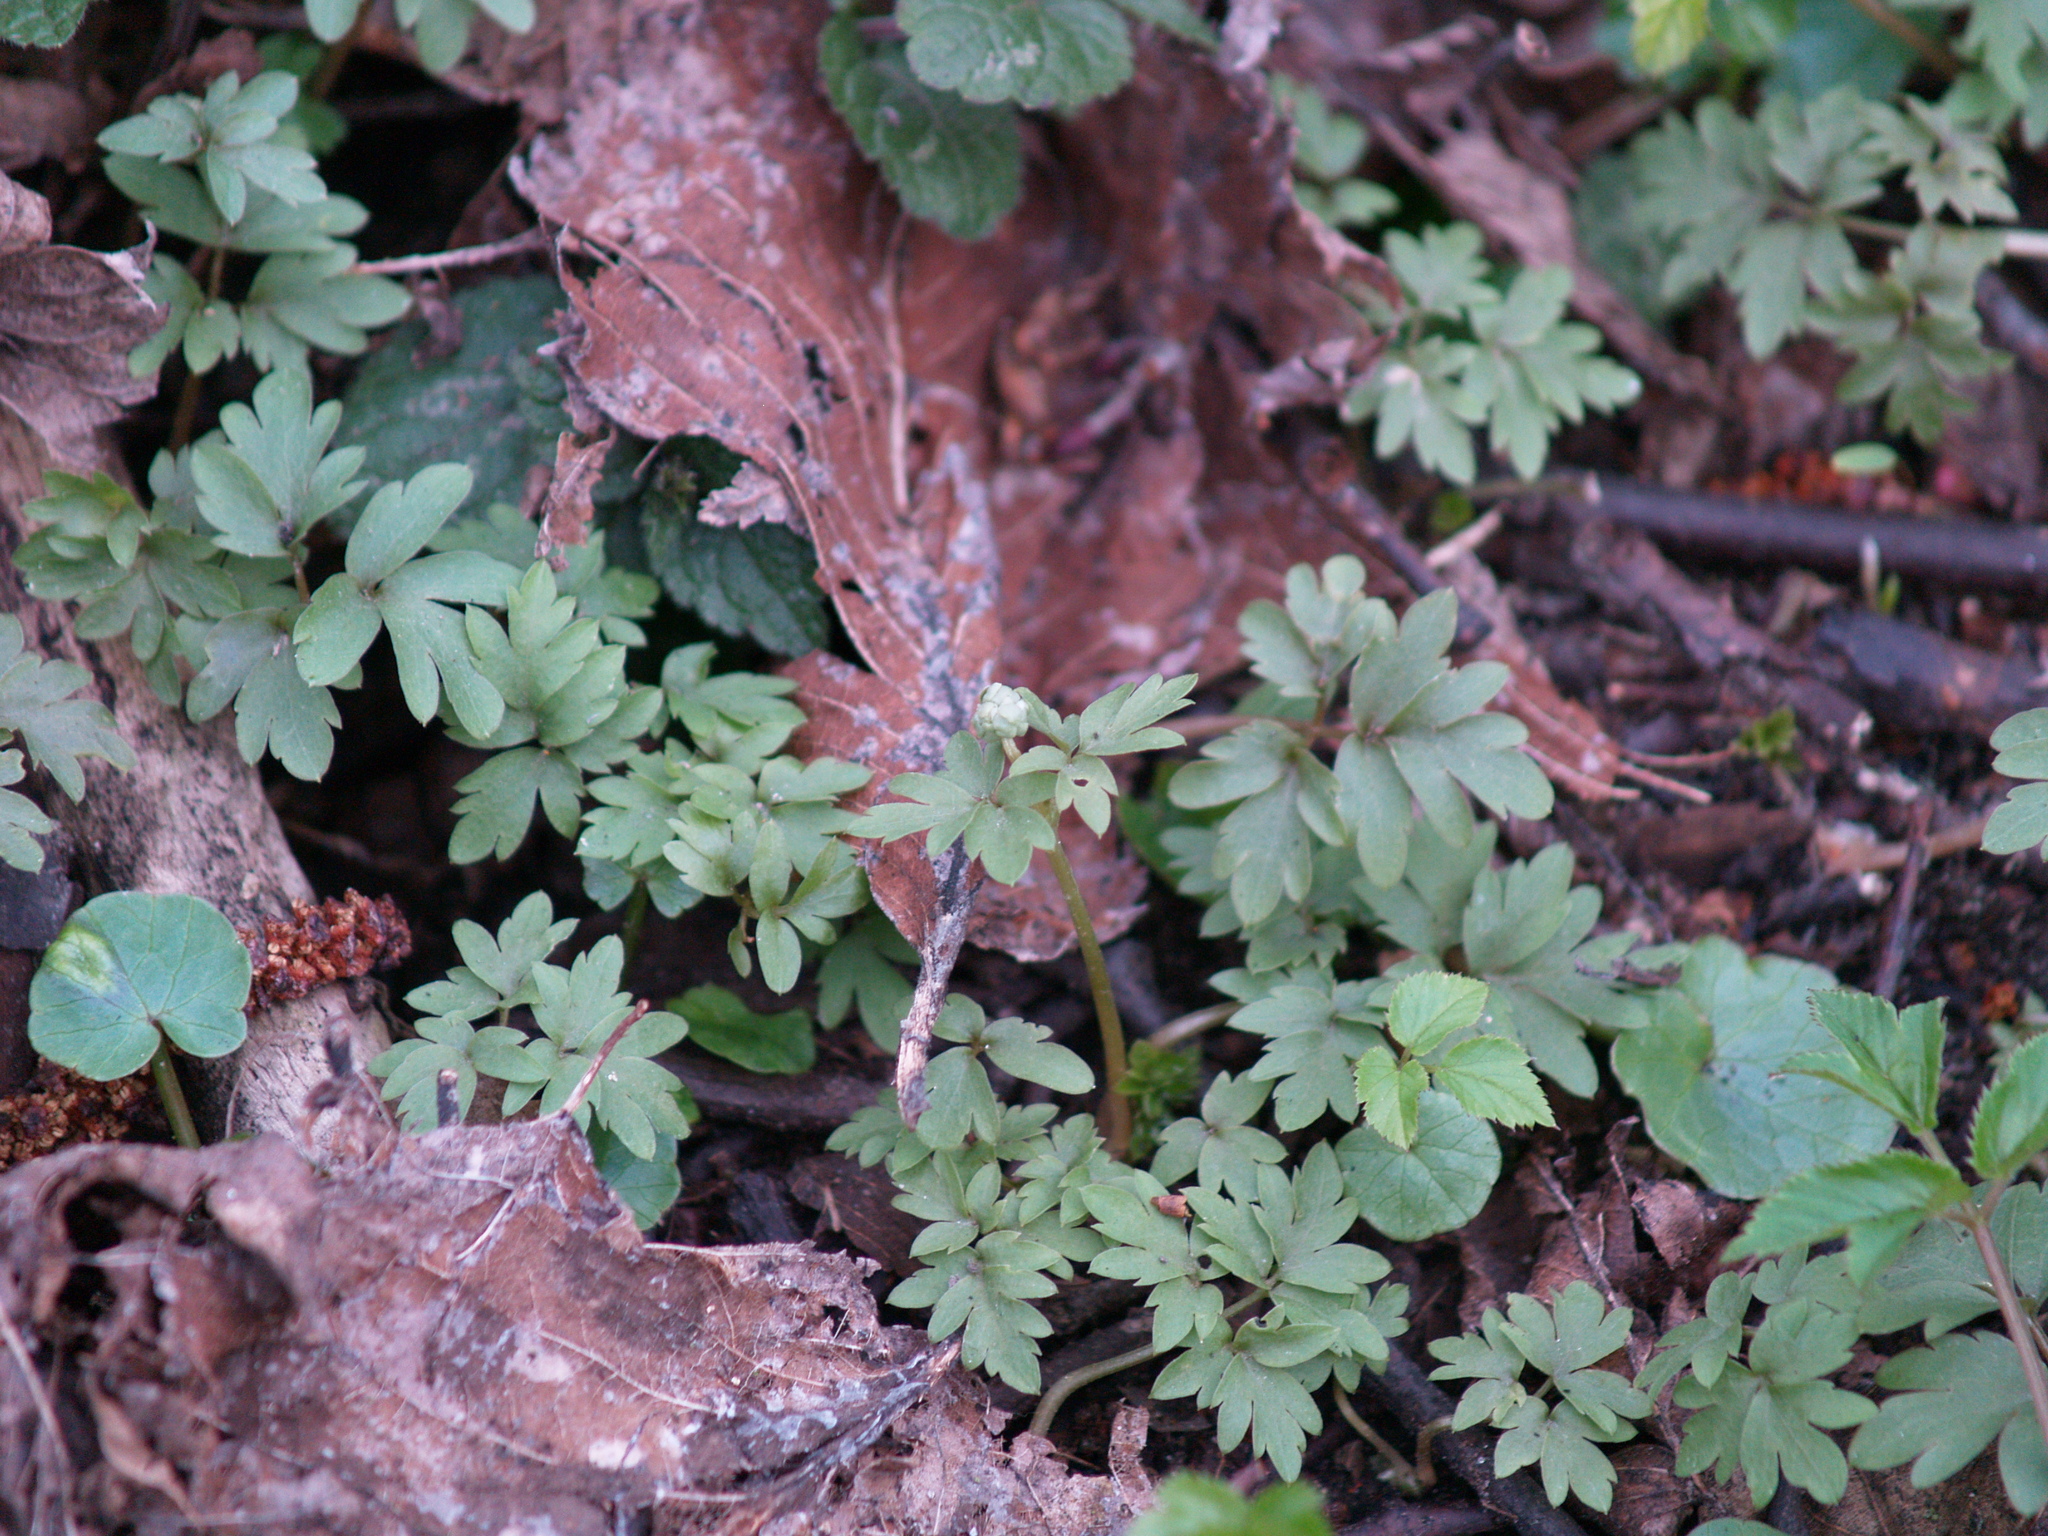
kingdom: Plantae
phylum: Tracheophyta
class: Magnoliopsida
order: Dipsacales
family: Viburnaceae
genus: Adoxa
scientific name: Adoxa moschatellina
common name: Moschatel
